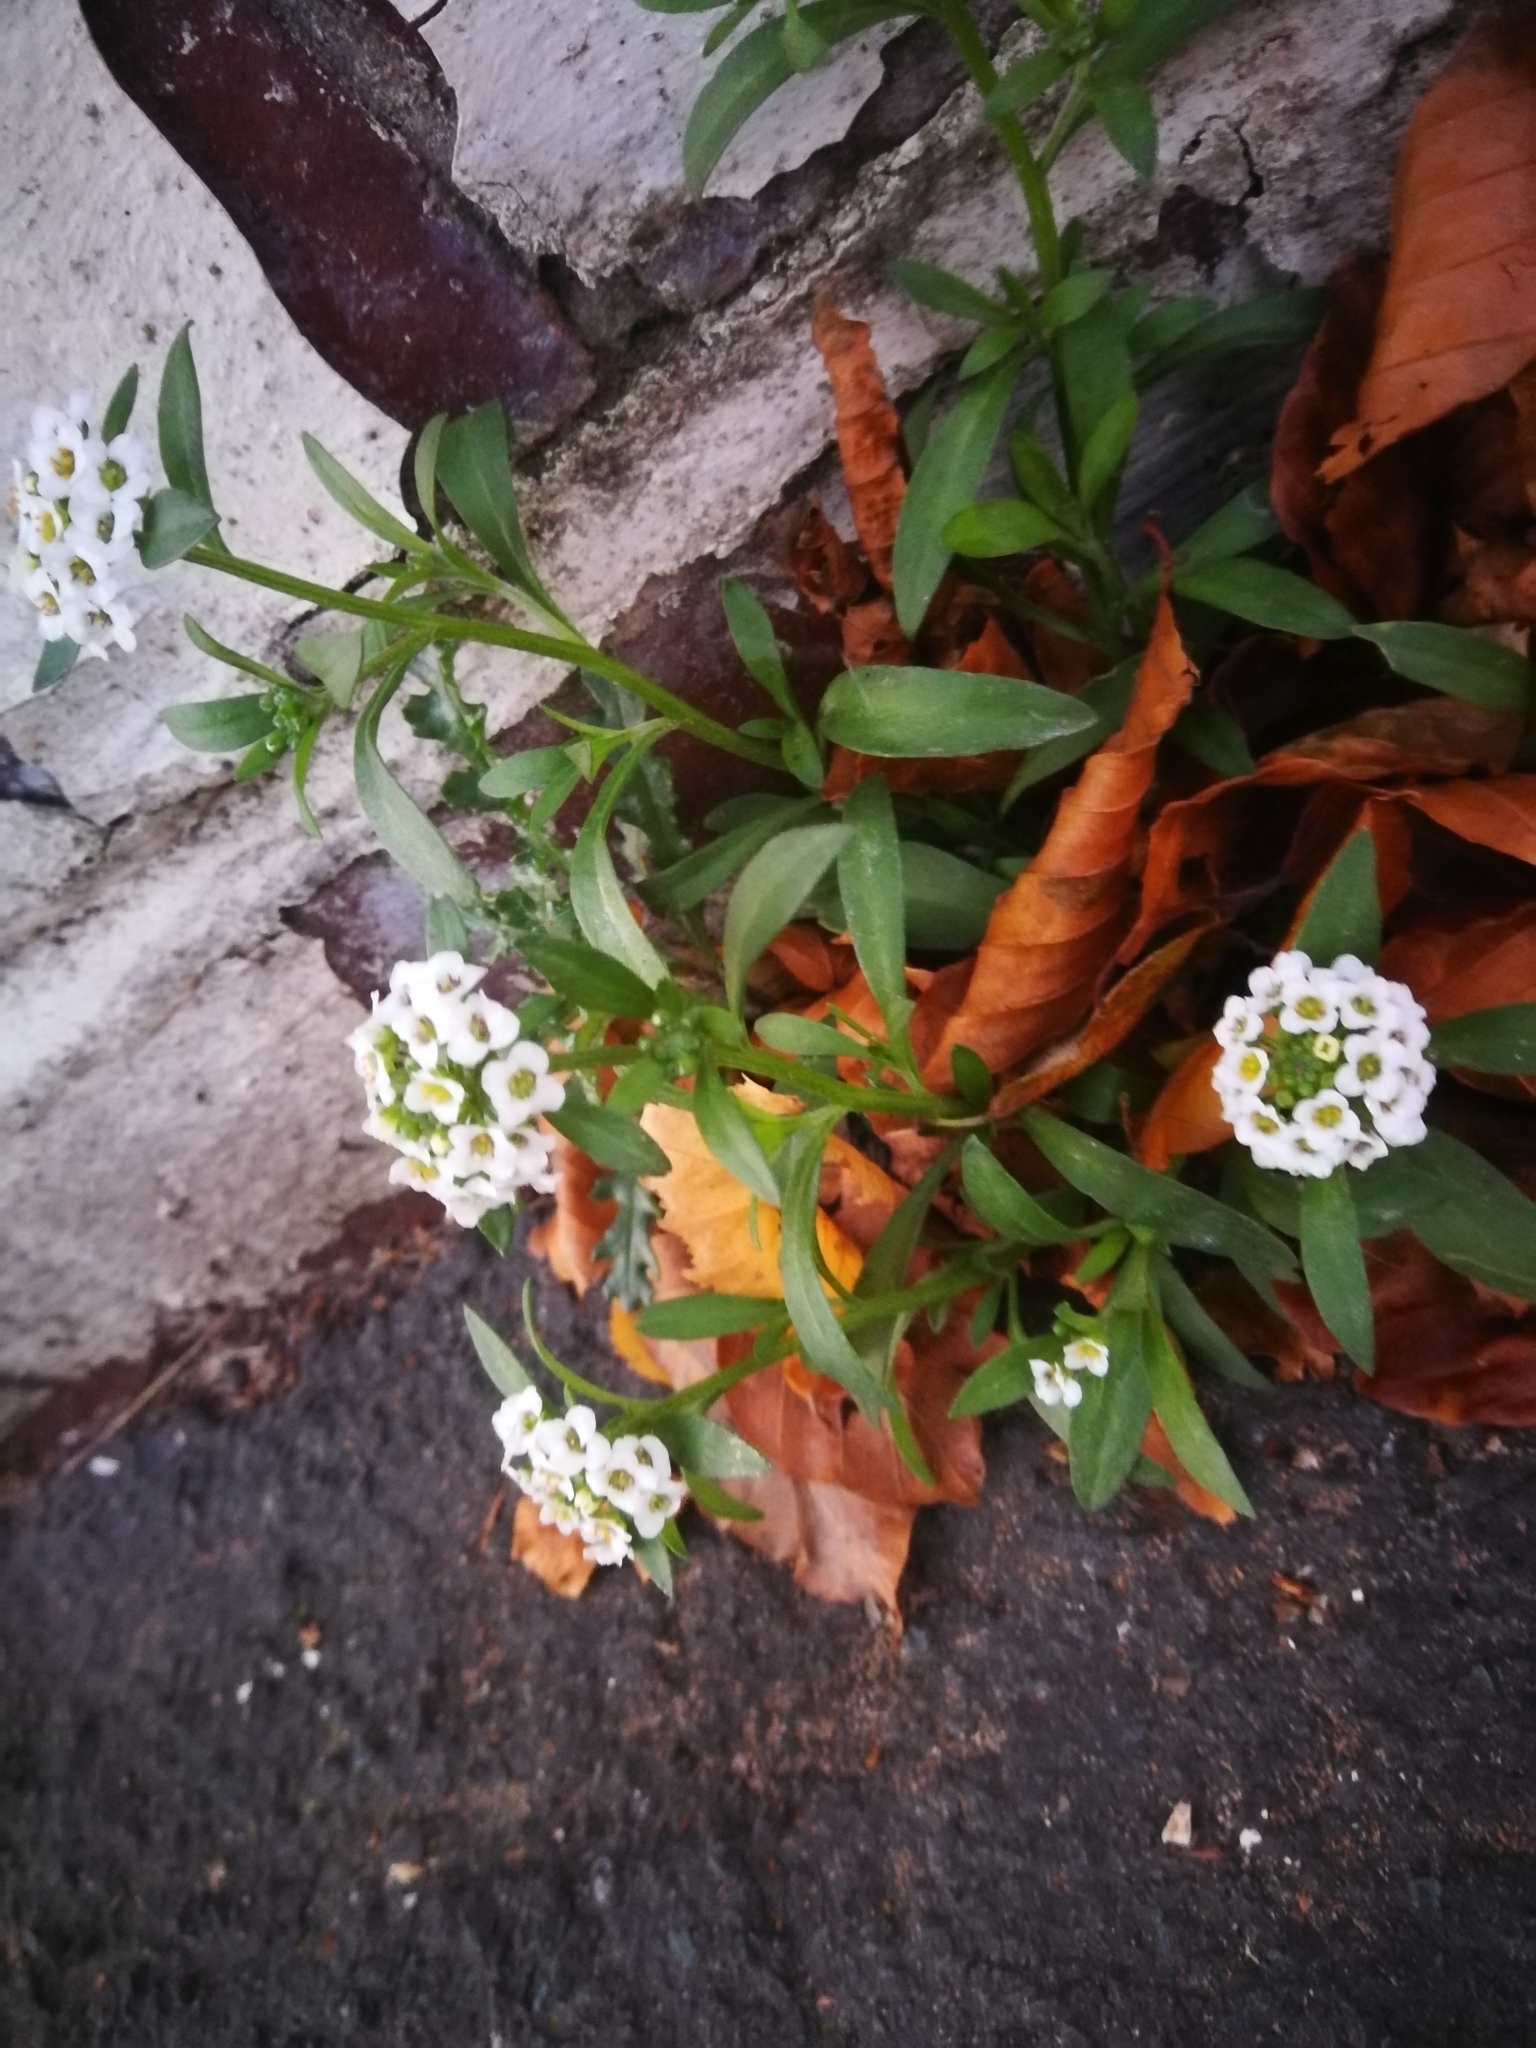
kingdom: Plantae
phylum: Tracheophyta
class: Magnoliopsida
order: Brassicales
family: Brassicaceae
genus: Lobularia
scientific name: Lobularia maritima
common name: Sweet alison
